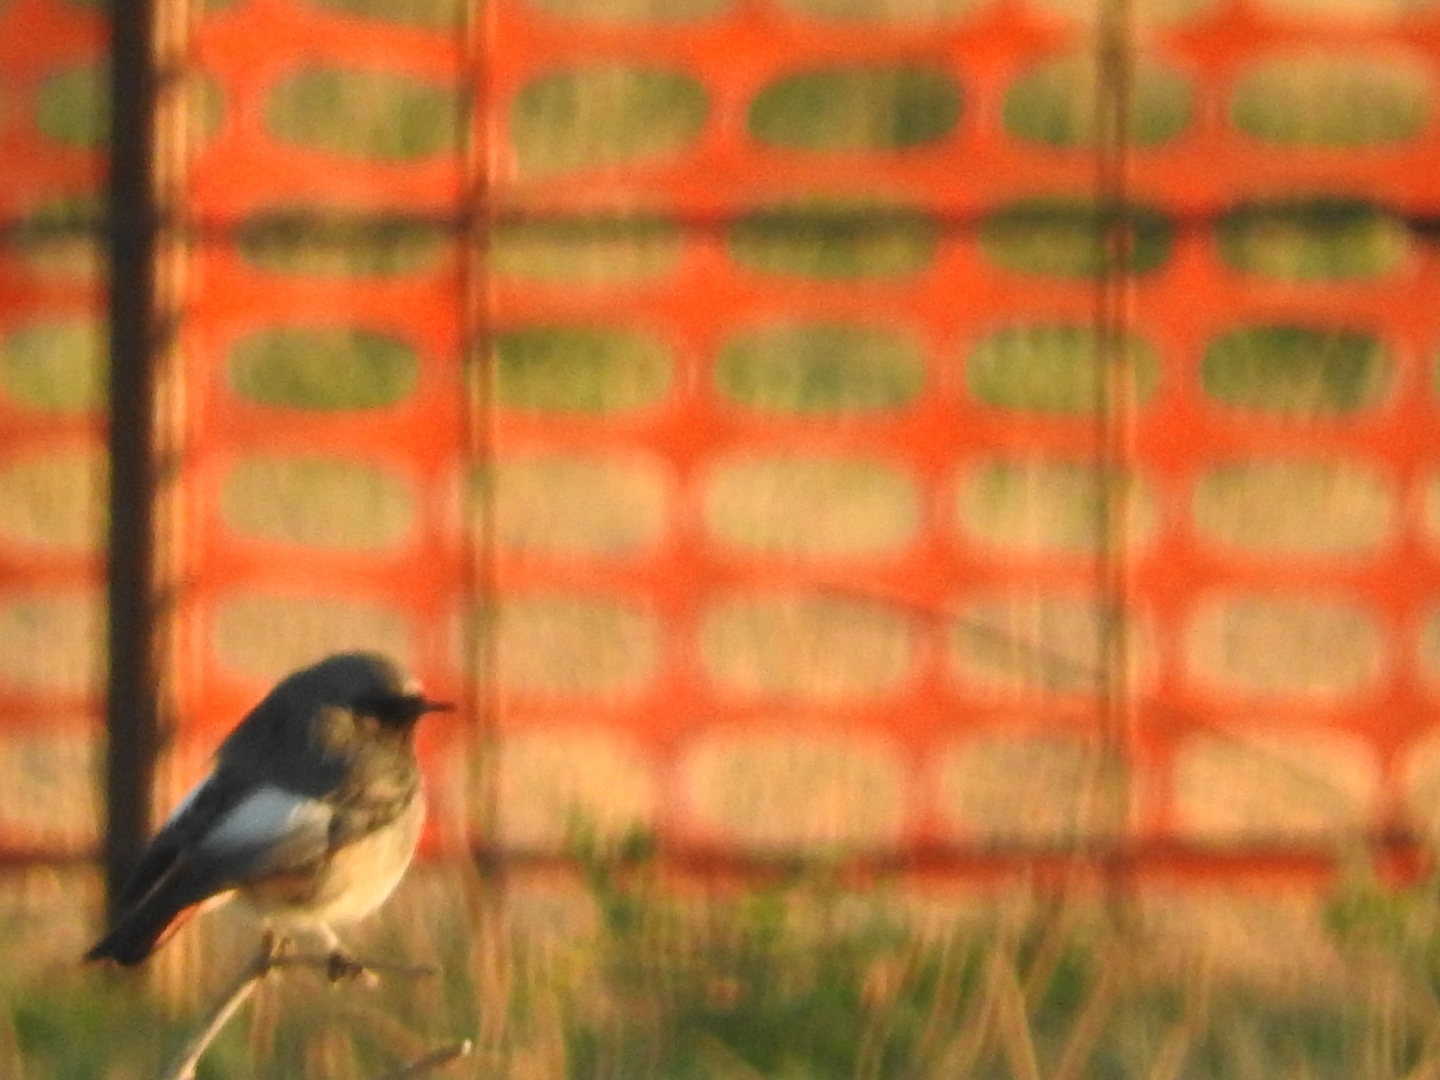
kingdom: Animalia
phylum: Chordata
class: Aves
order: Passeriformes
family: Muscicapidae
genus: Phoenicurus
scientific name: Phoenicurus ochruros
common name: Black redstart
